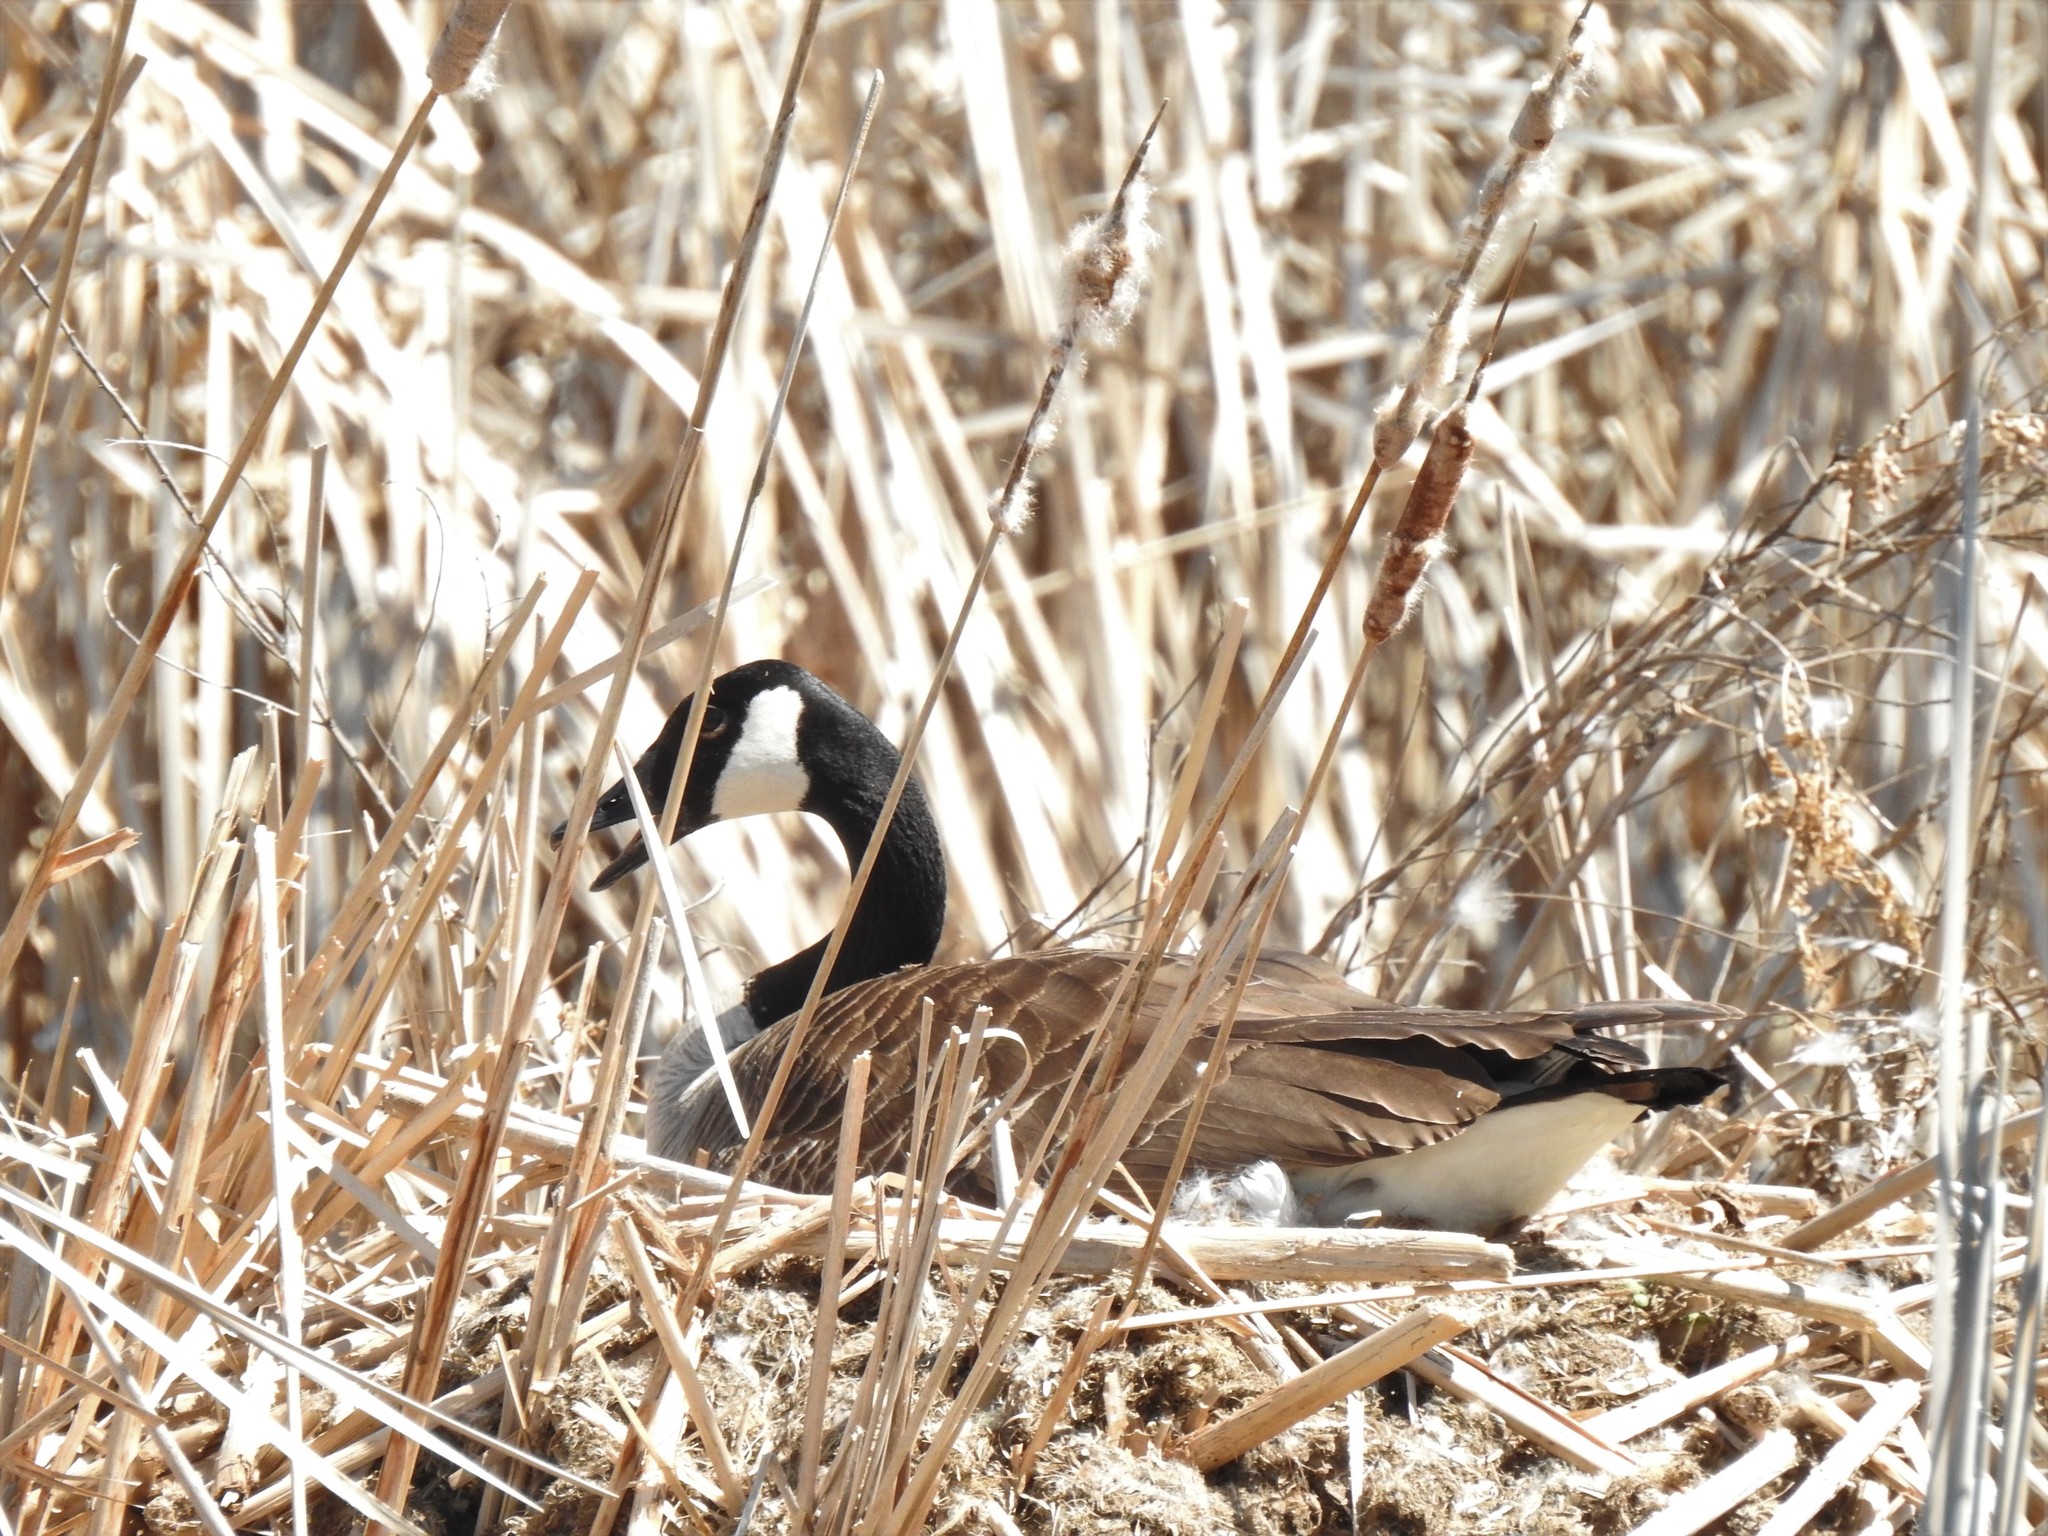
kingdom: Animalia
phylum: Chordata
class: Aves
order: Anseriformes
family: Anatidae
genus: Branta
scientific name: Branta canadensis
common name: Canada goose
